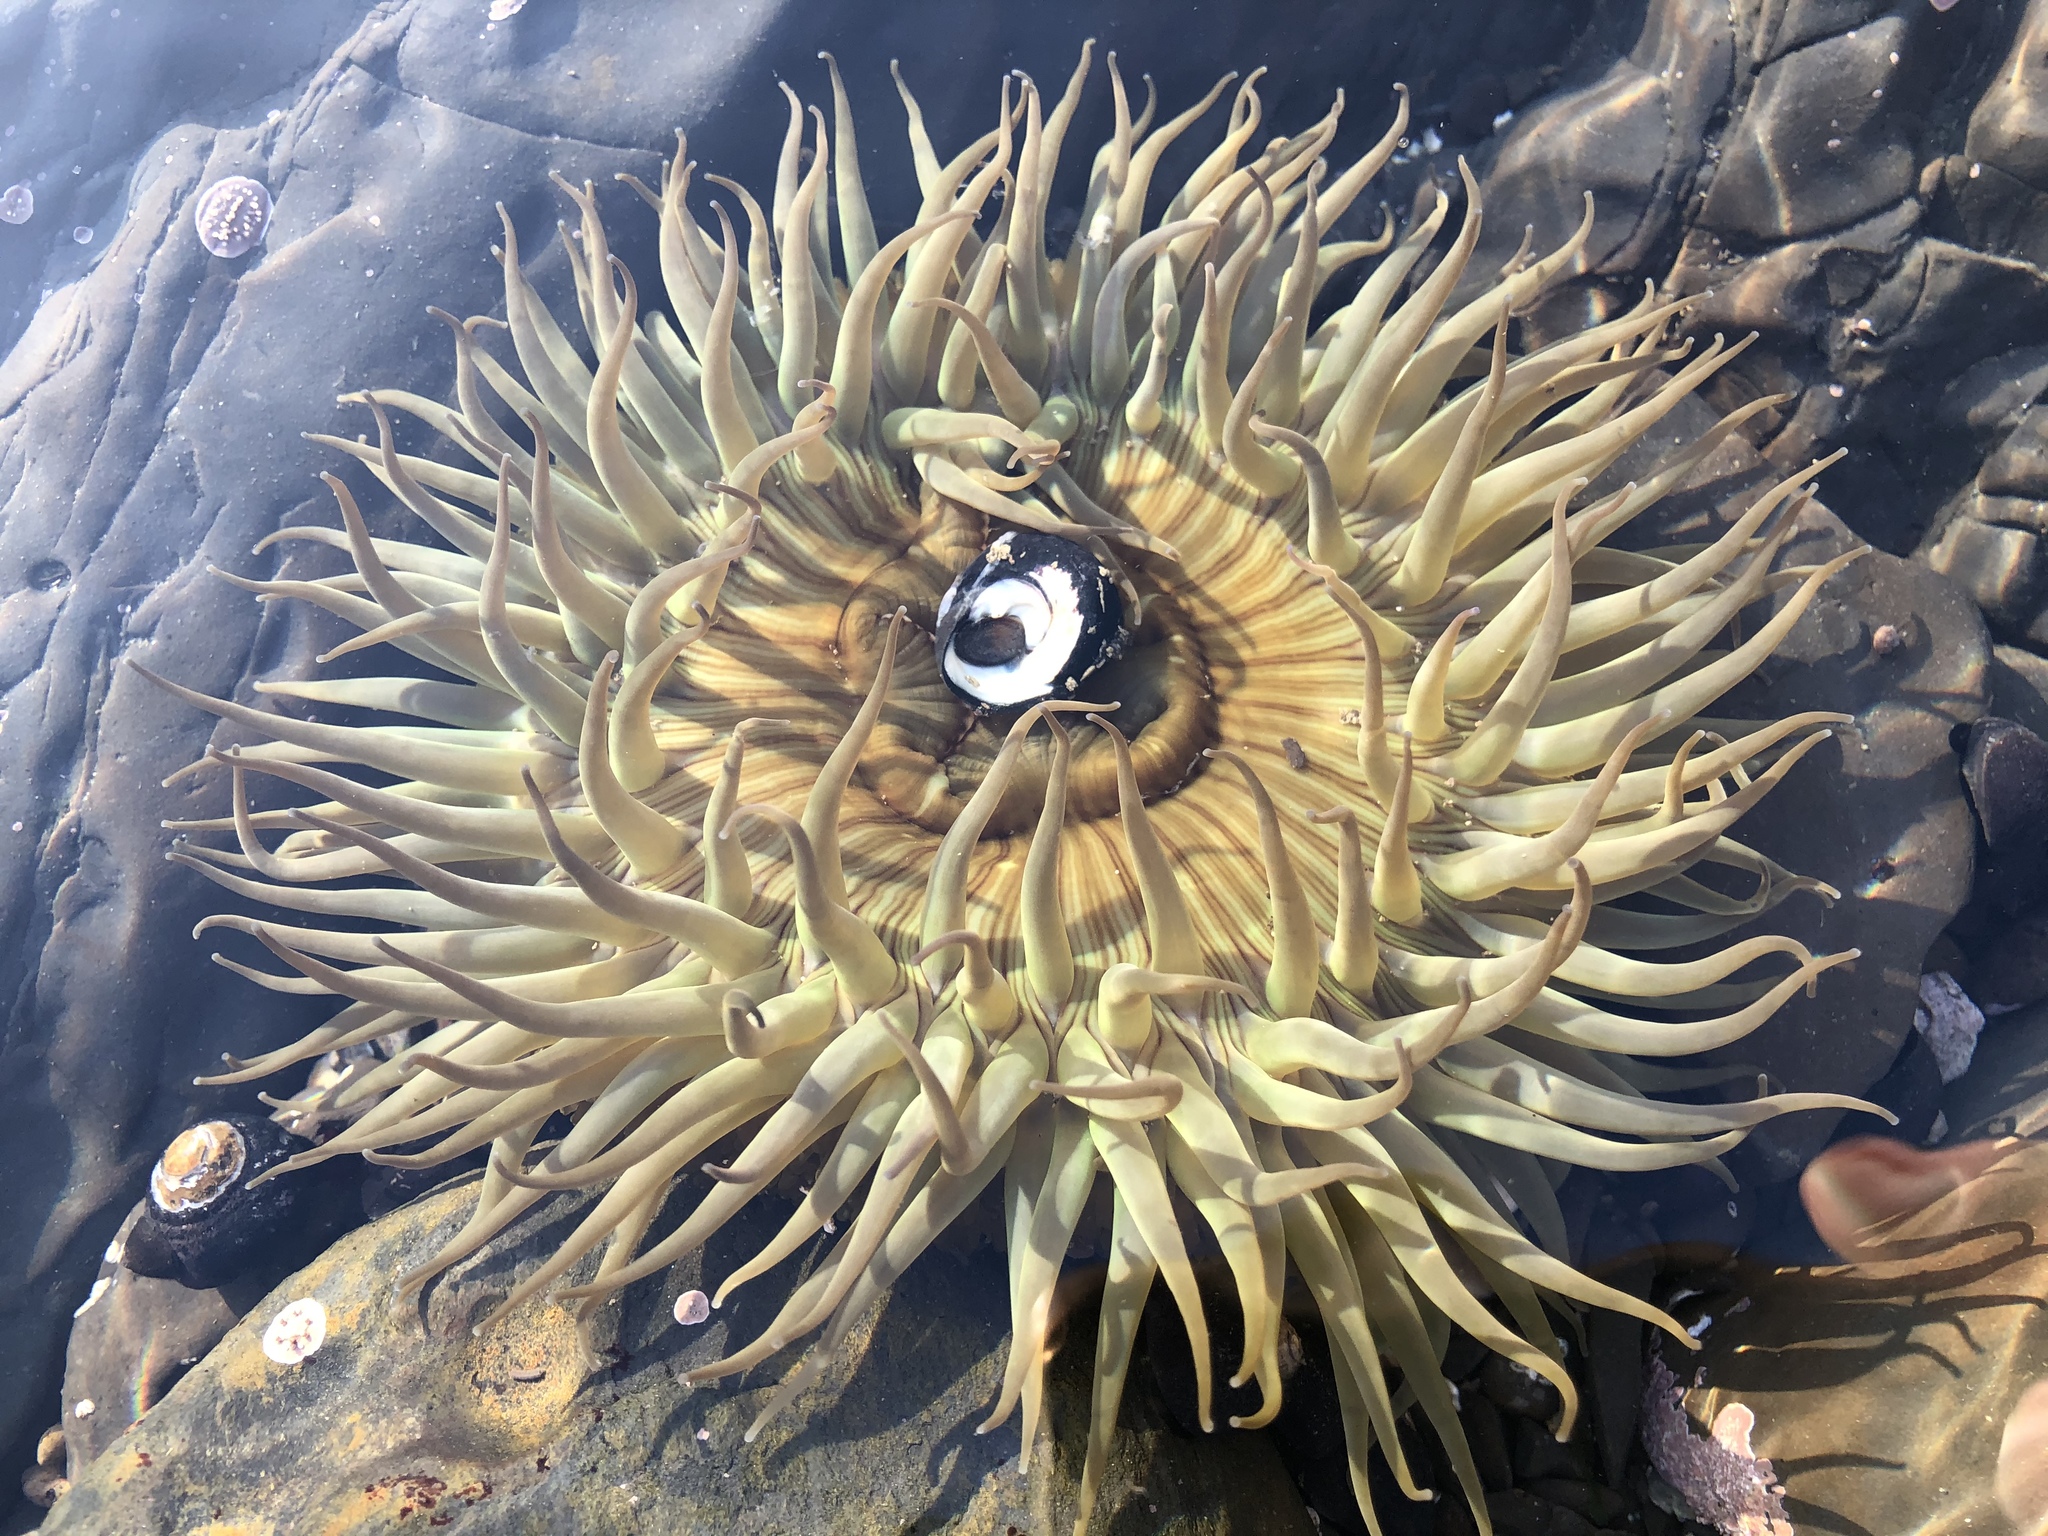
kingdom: Animalia
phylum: Cnidaria
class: Anthozoa
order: Actiniaria
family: Actiniidae
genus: Anthopleura
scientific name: Anthopleura sola
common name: Sun anemone
